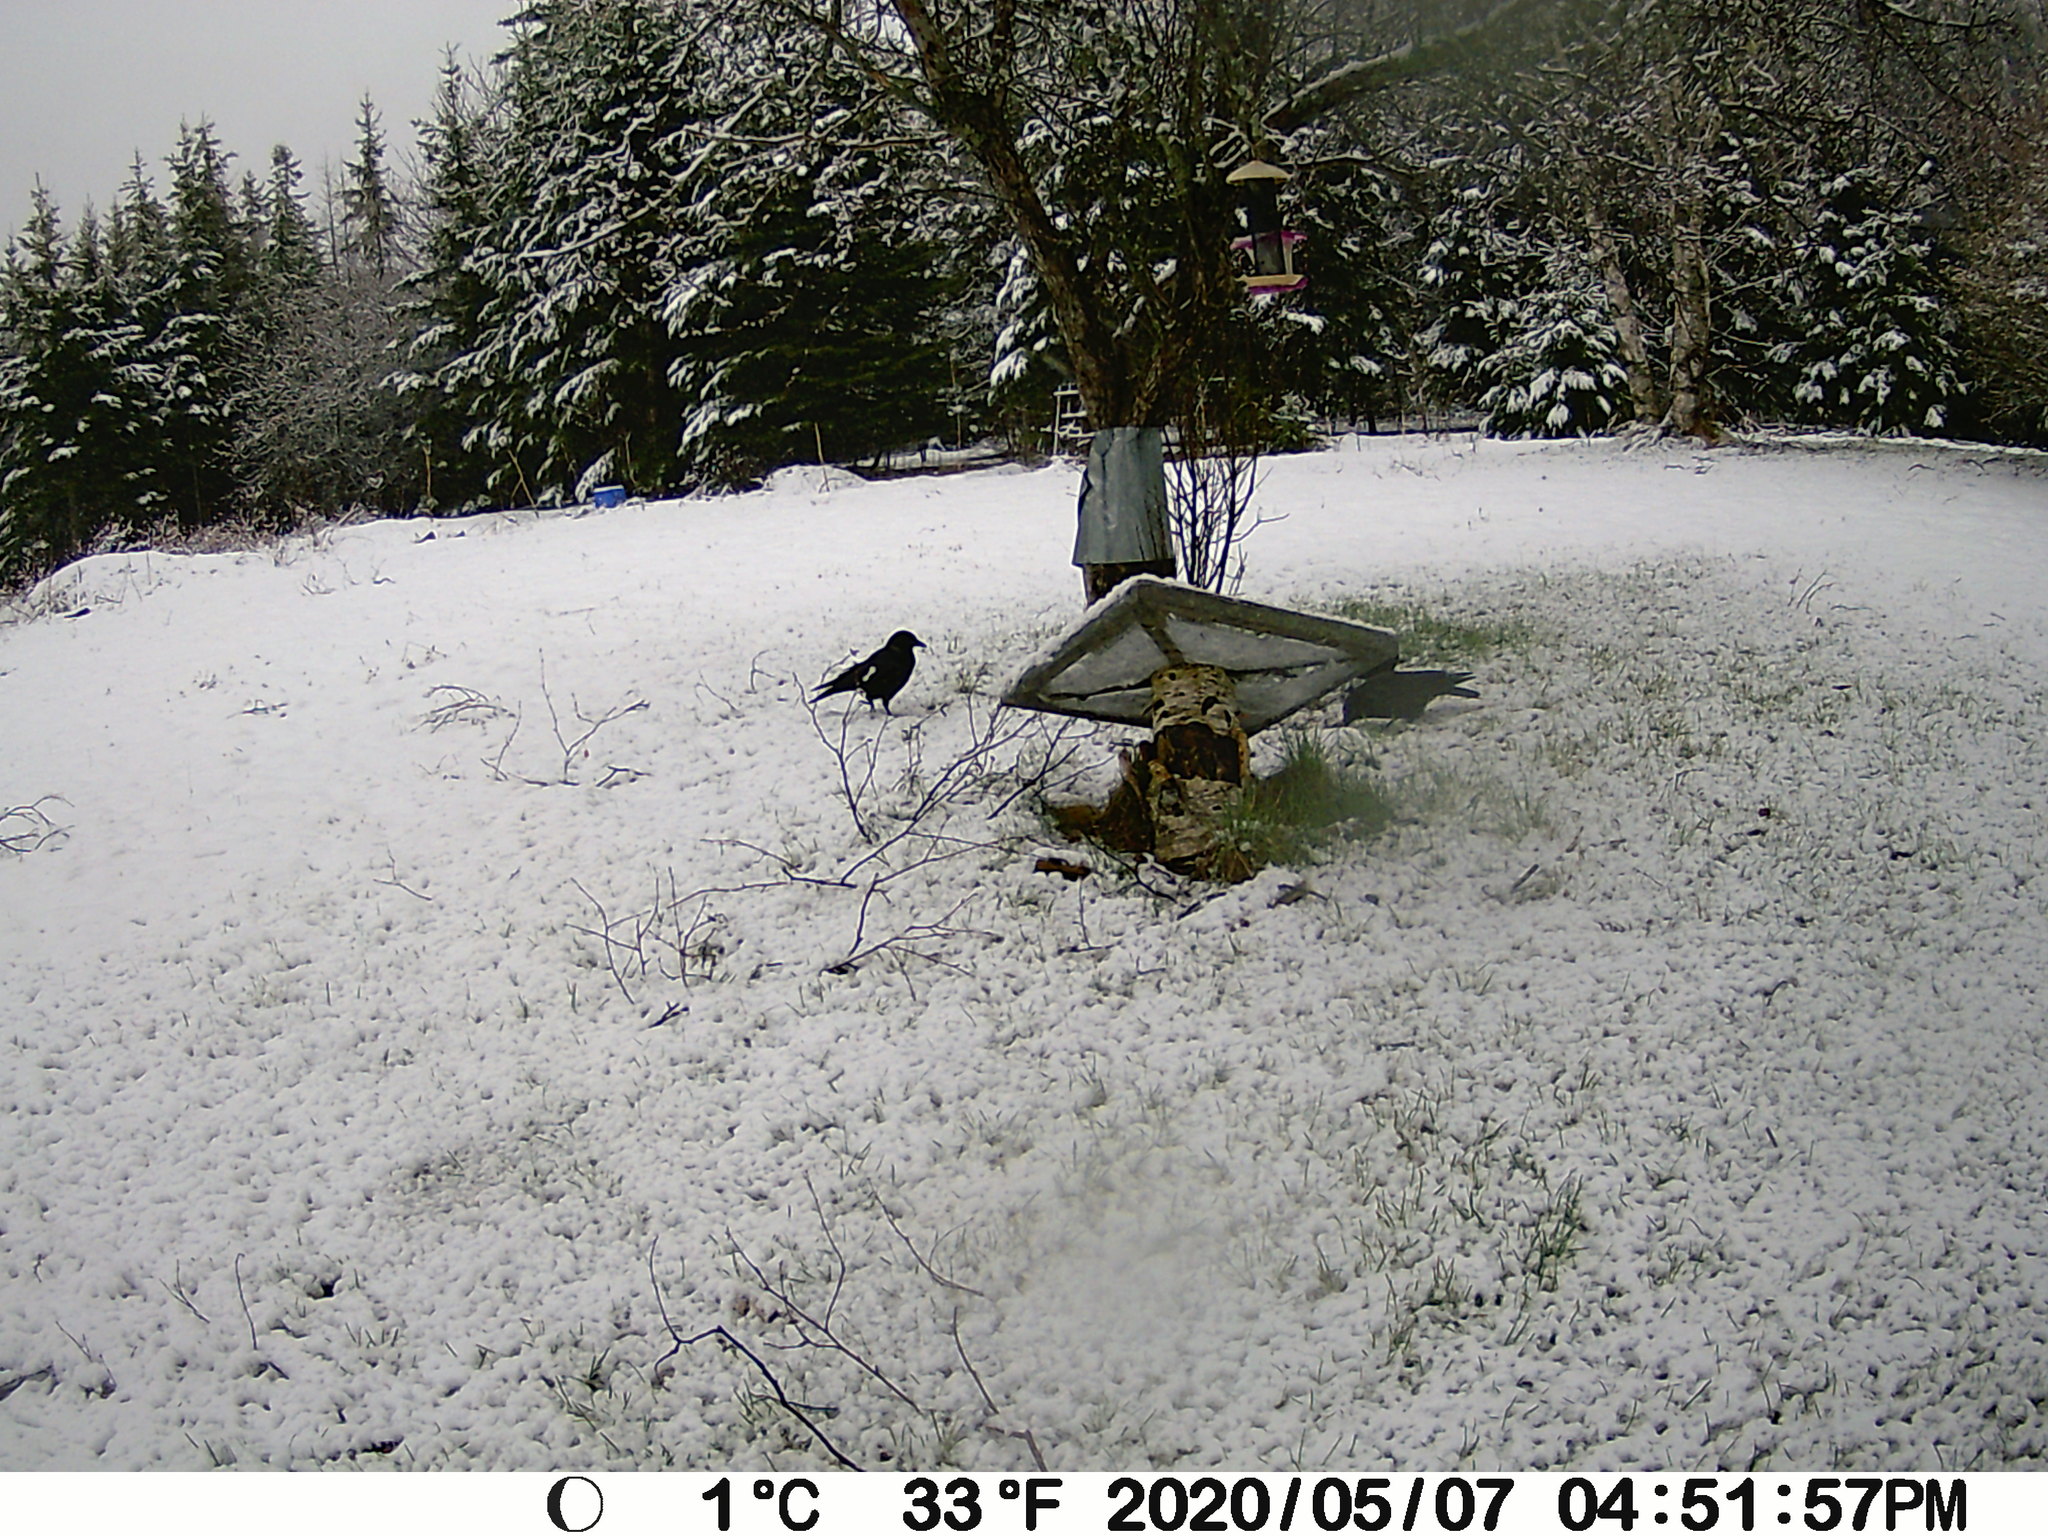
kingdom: Animalia
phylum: Chordata
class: Aves
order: Passeriformes
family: Corvidae
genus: Corvus
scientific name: Corvus brachyrhynchos
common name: American crow
